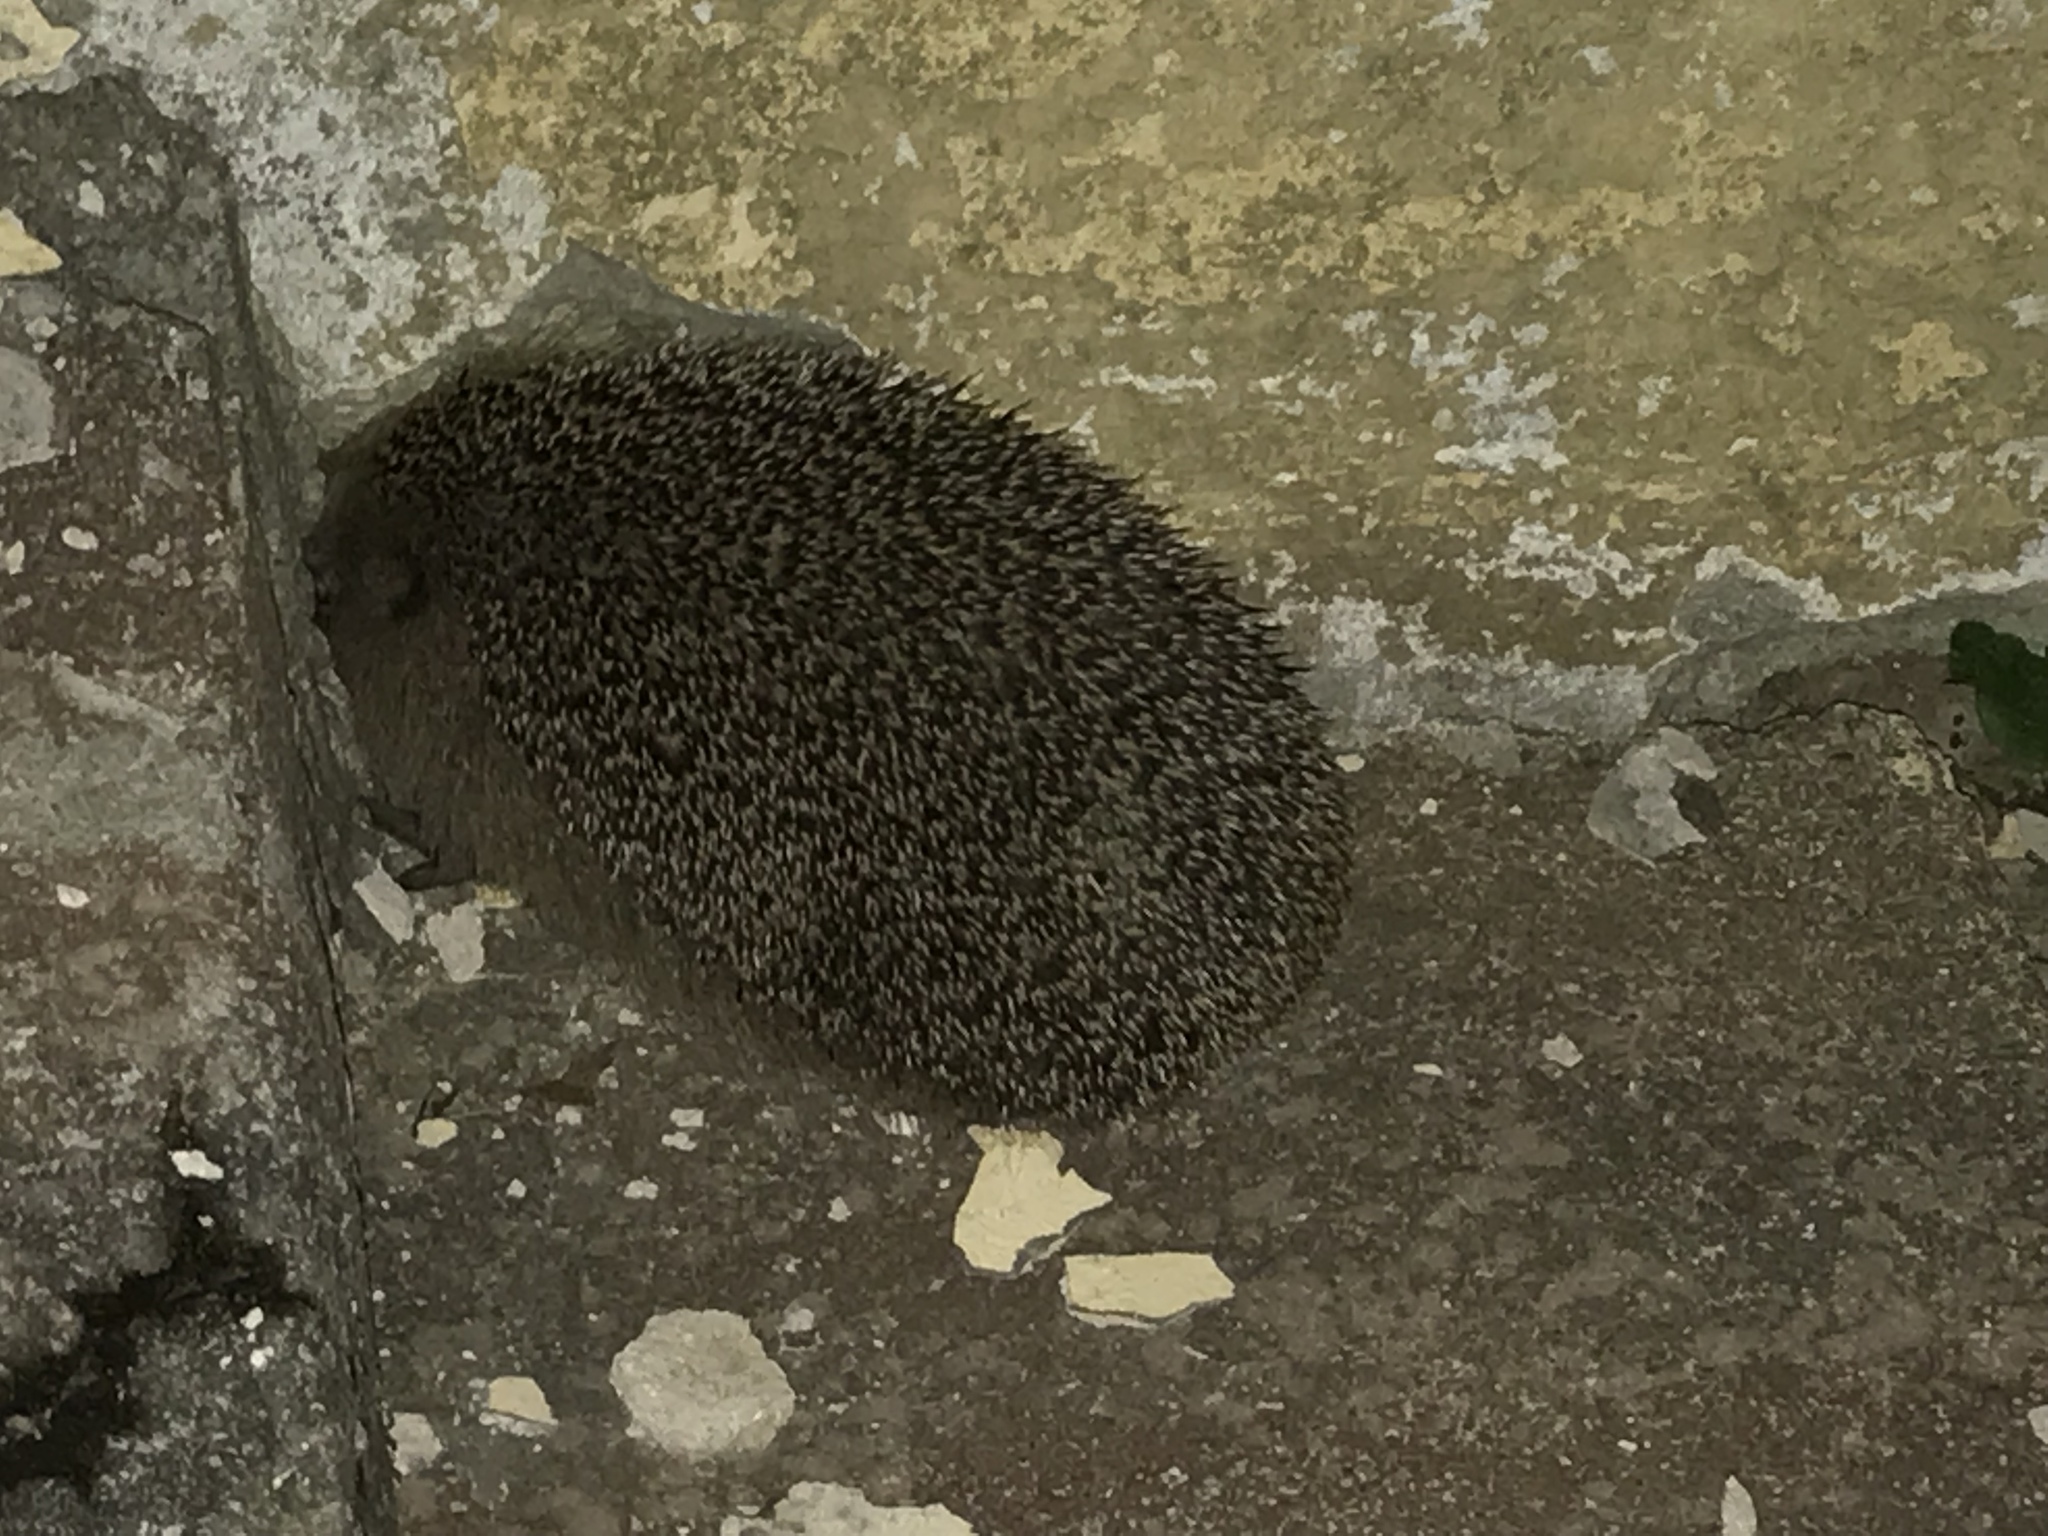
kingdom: Animalia
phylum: Chordata
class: Mammalia
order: Erinaceomorpha
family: Erinaceidae
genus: Erinaceus
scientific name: Erinaceus europaeus
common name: West european hedgehog
